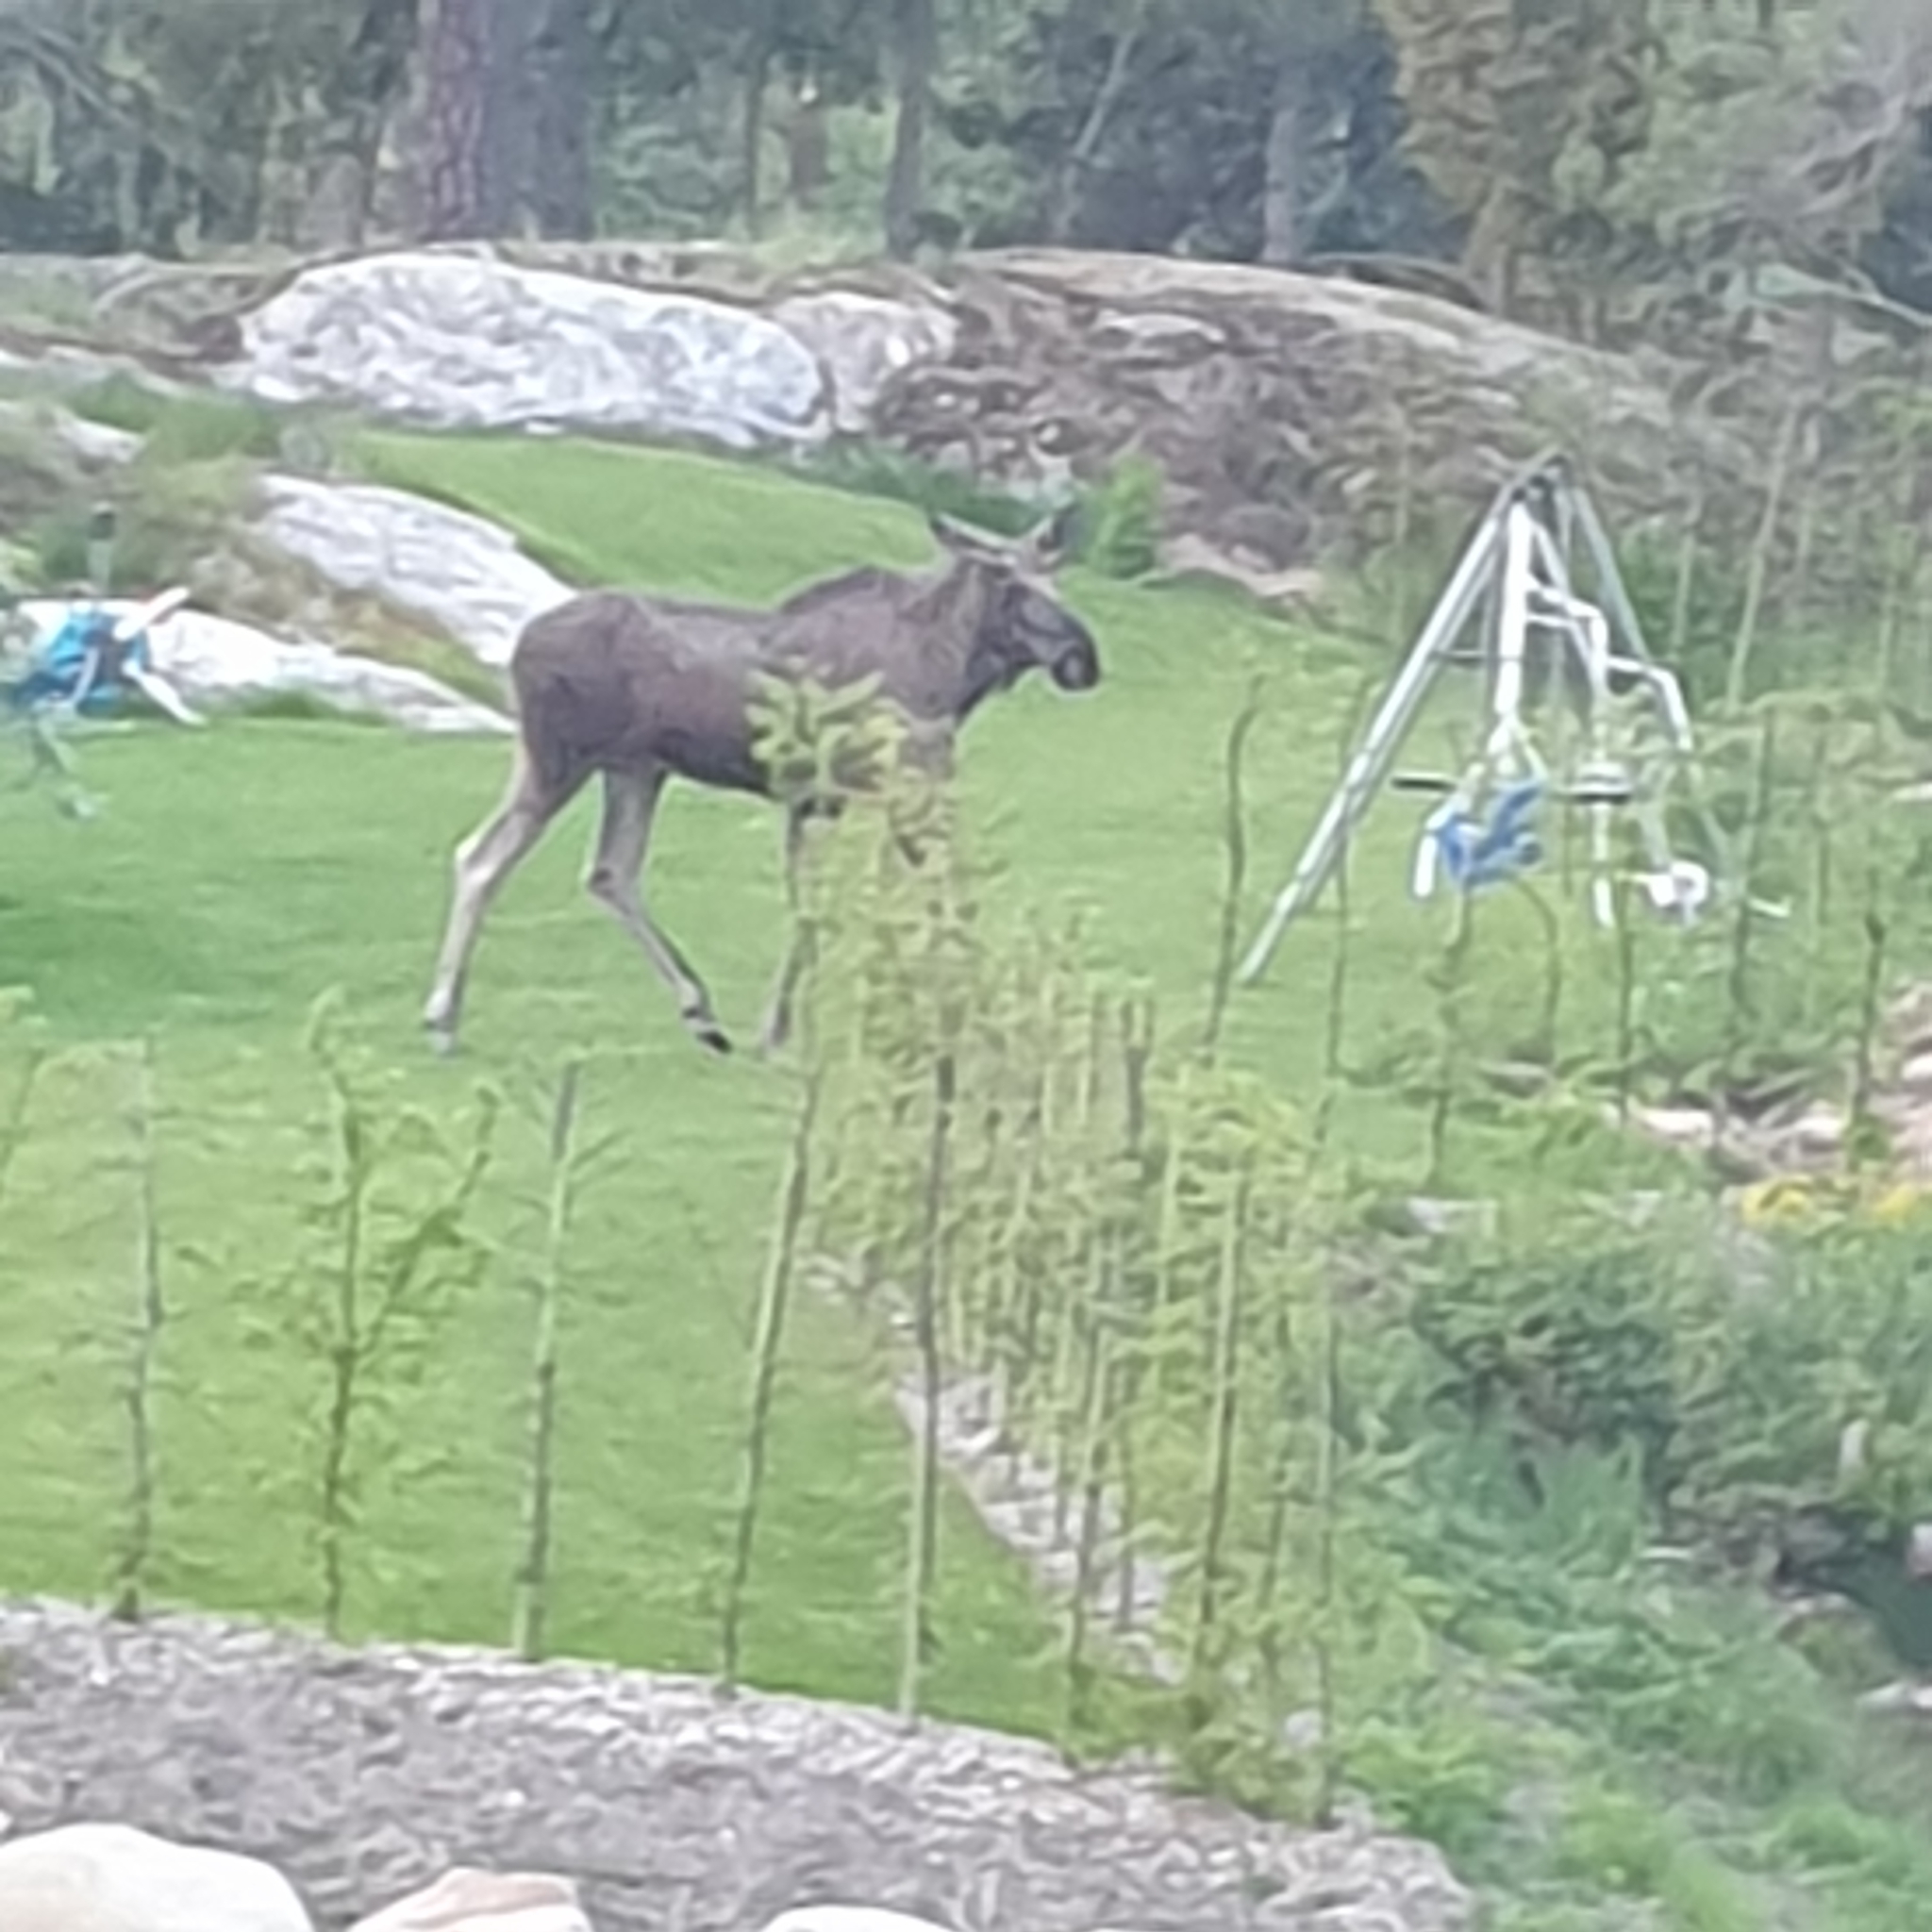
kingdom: Animalia
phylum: Chordata
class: Mammalia
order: Artiodactyla
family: Cervidae
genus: Alces
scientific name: Alces alces
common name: Moose
